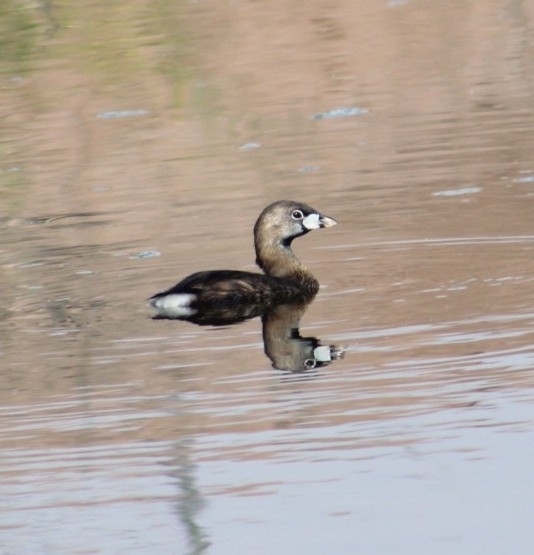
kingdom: Animalia
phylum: Chordata
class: Aves
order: Podicipediformes
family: Podicipedidae
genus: Podilymbus
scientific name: Podilymbus podiceps
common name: Pied-billed grebe
